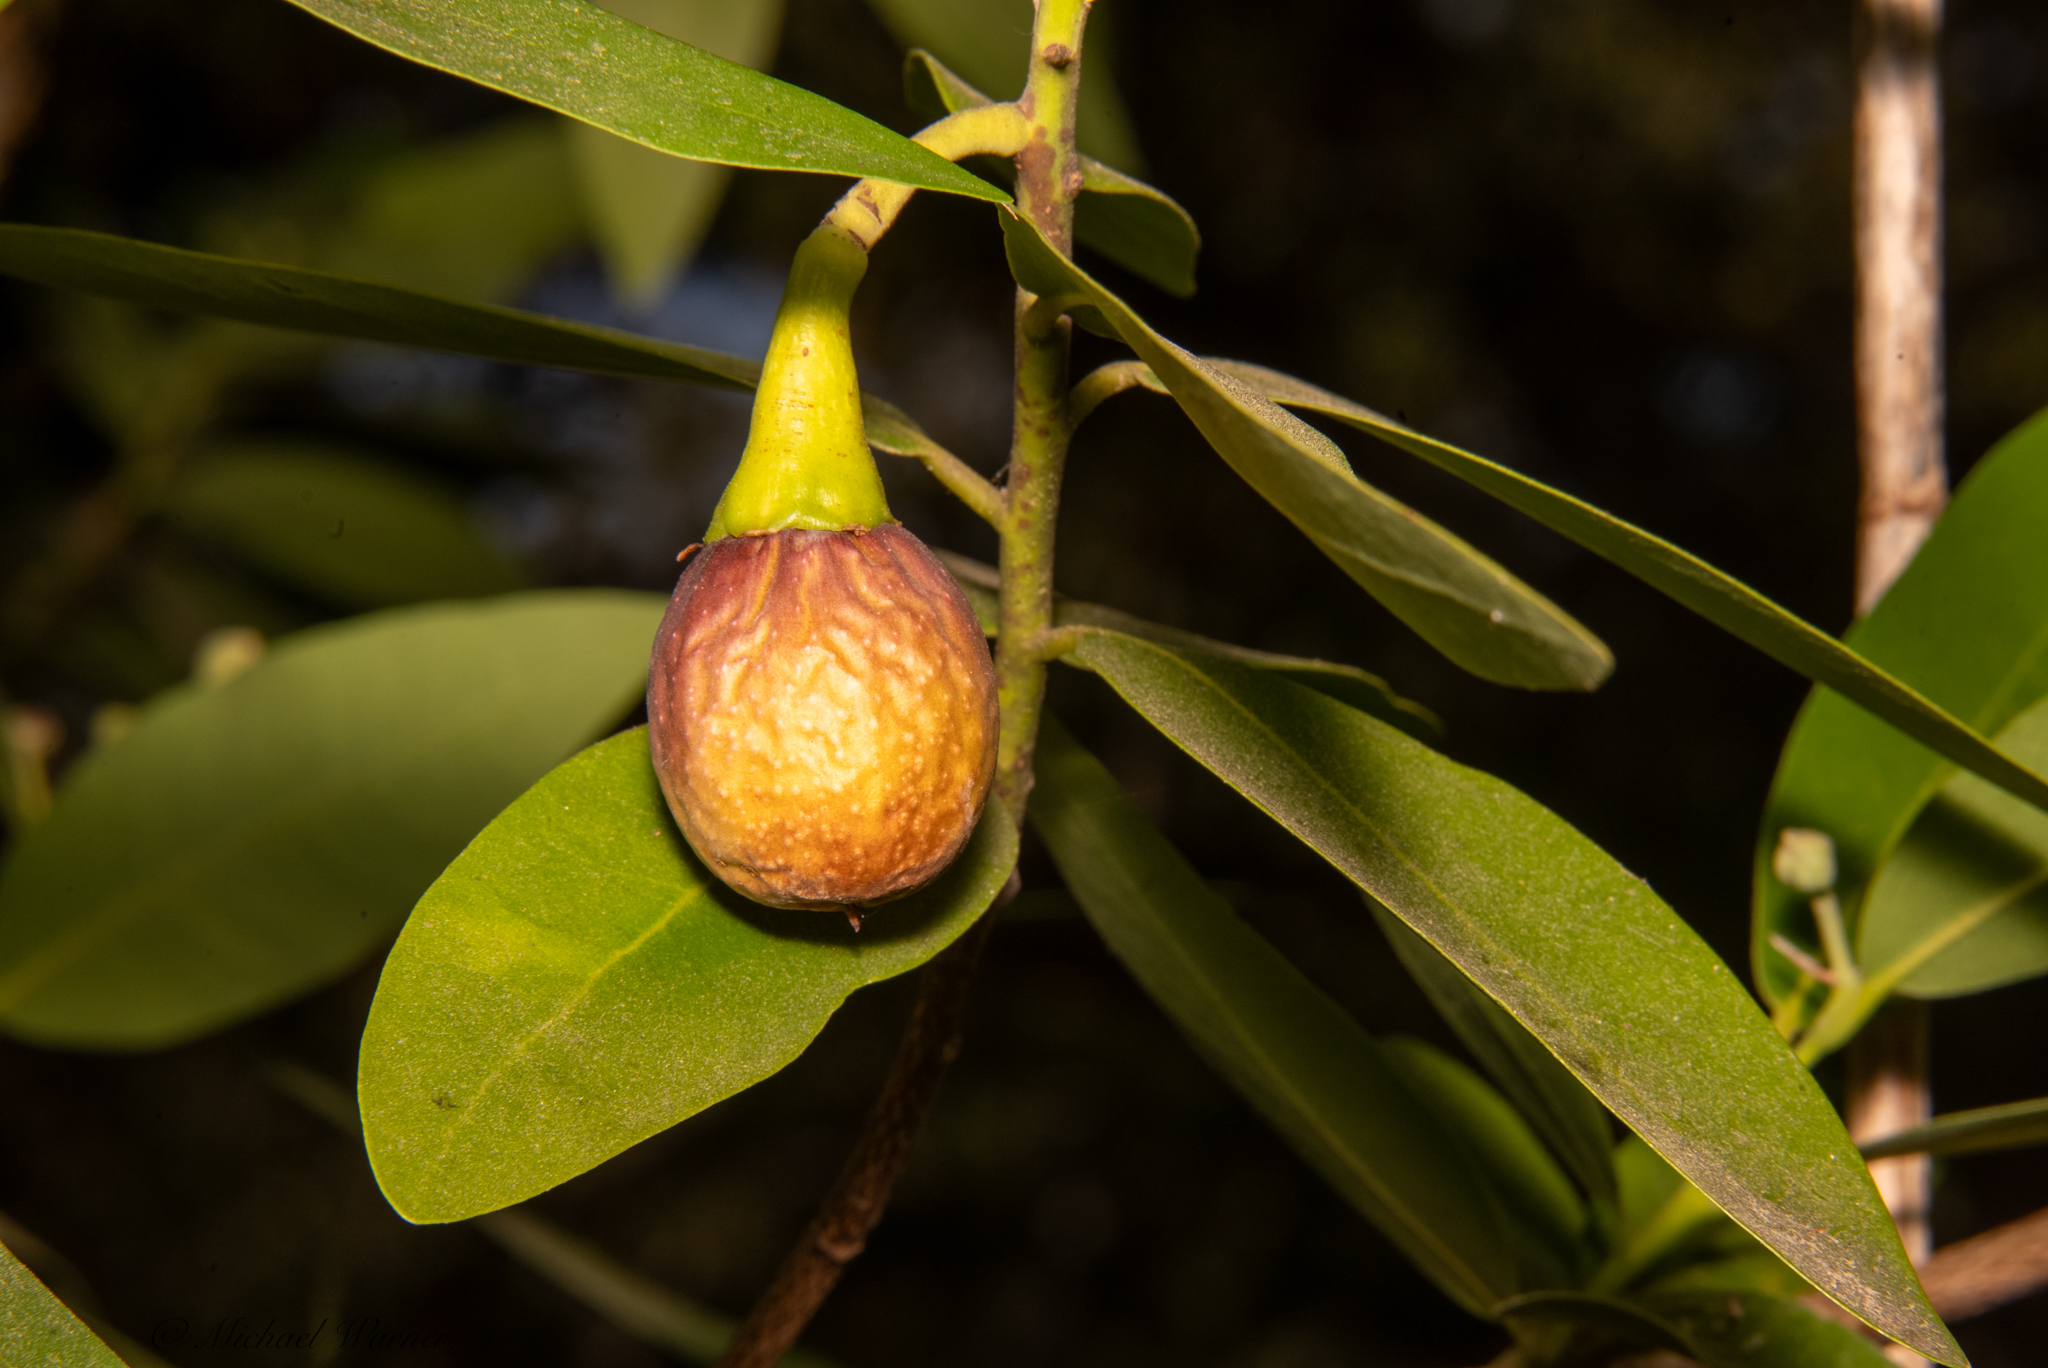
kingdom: Plantae
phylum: Tracheophyta
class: Magnoliopsida
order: Laurales
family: Lauraceae
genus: Umbellularia
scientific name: Umbellularia californica
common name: California bay
